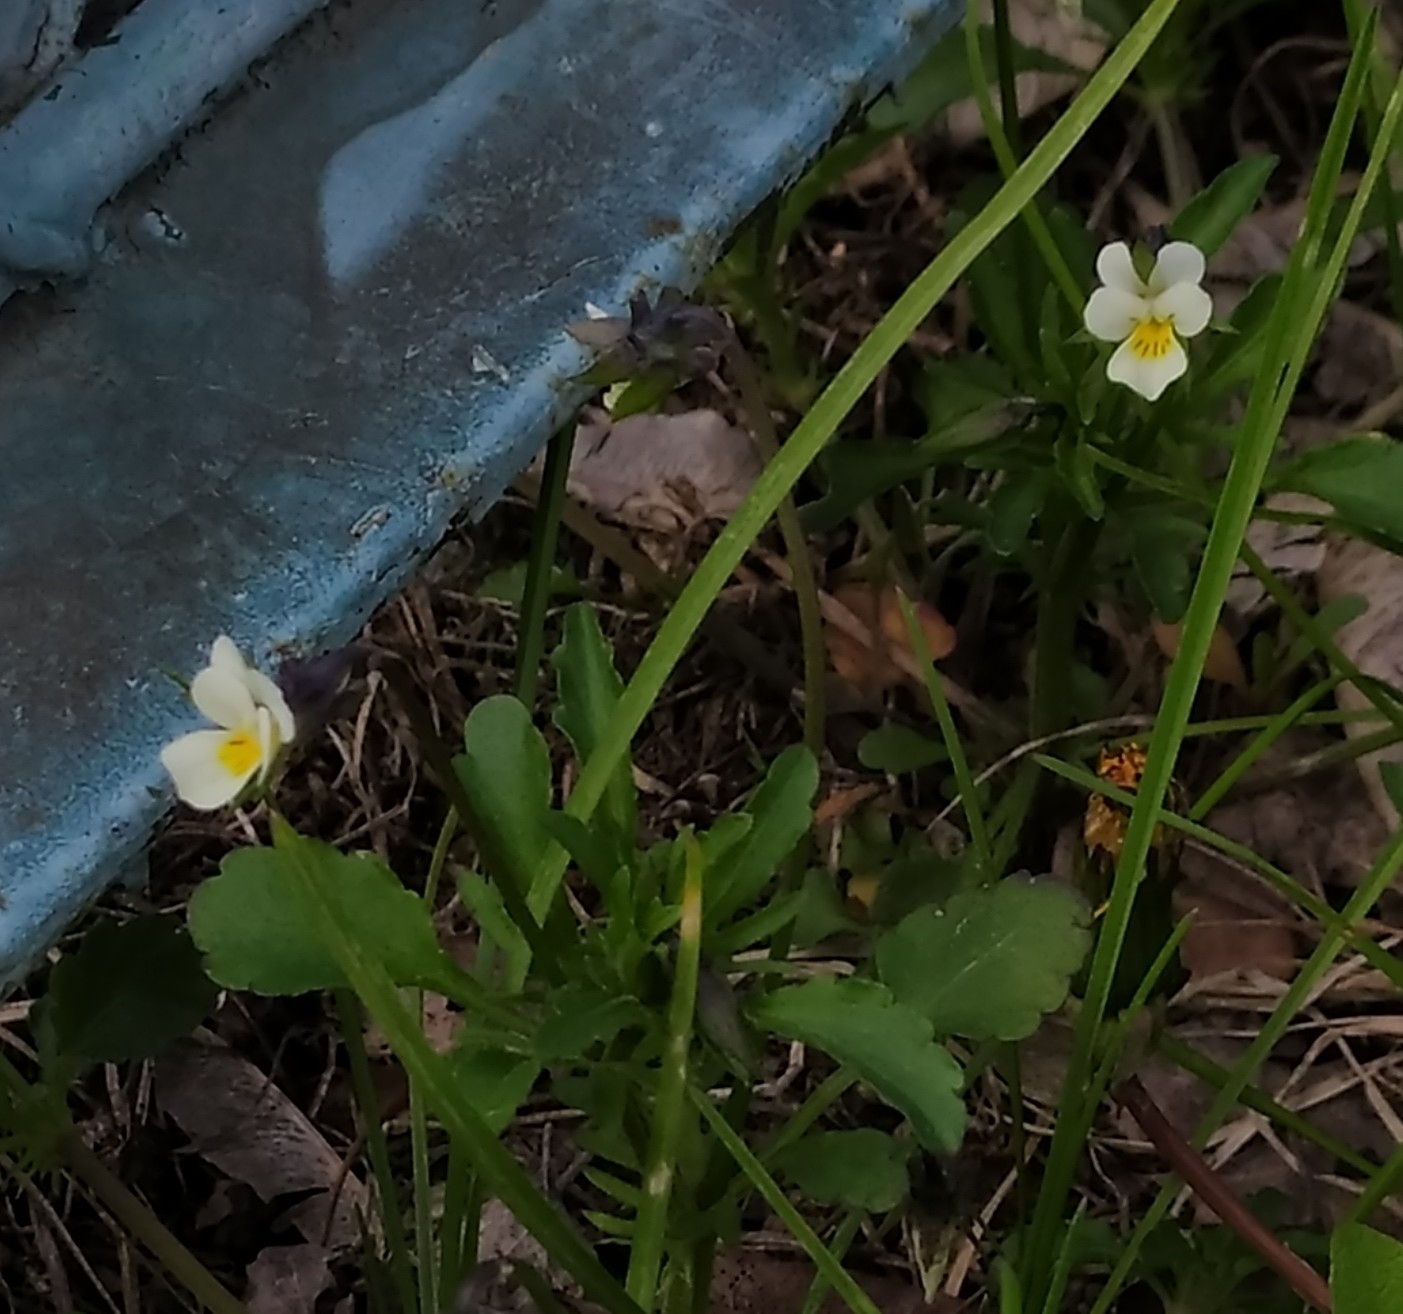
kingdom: Plantae
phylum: Tracheophyta
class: Magnoliopsida
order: Malpighiales
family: Violaceae
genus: Viola
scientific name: Viola arvensis
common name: Field pansy
